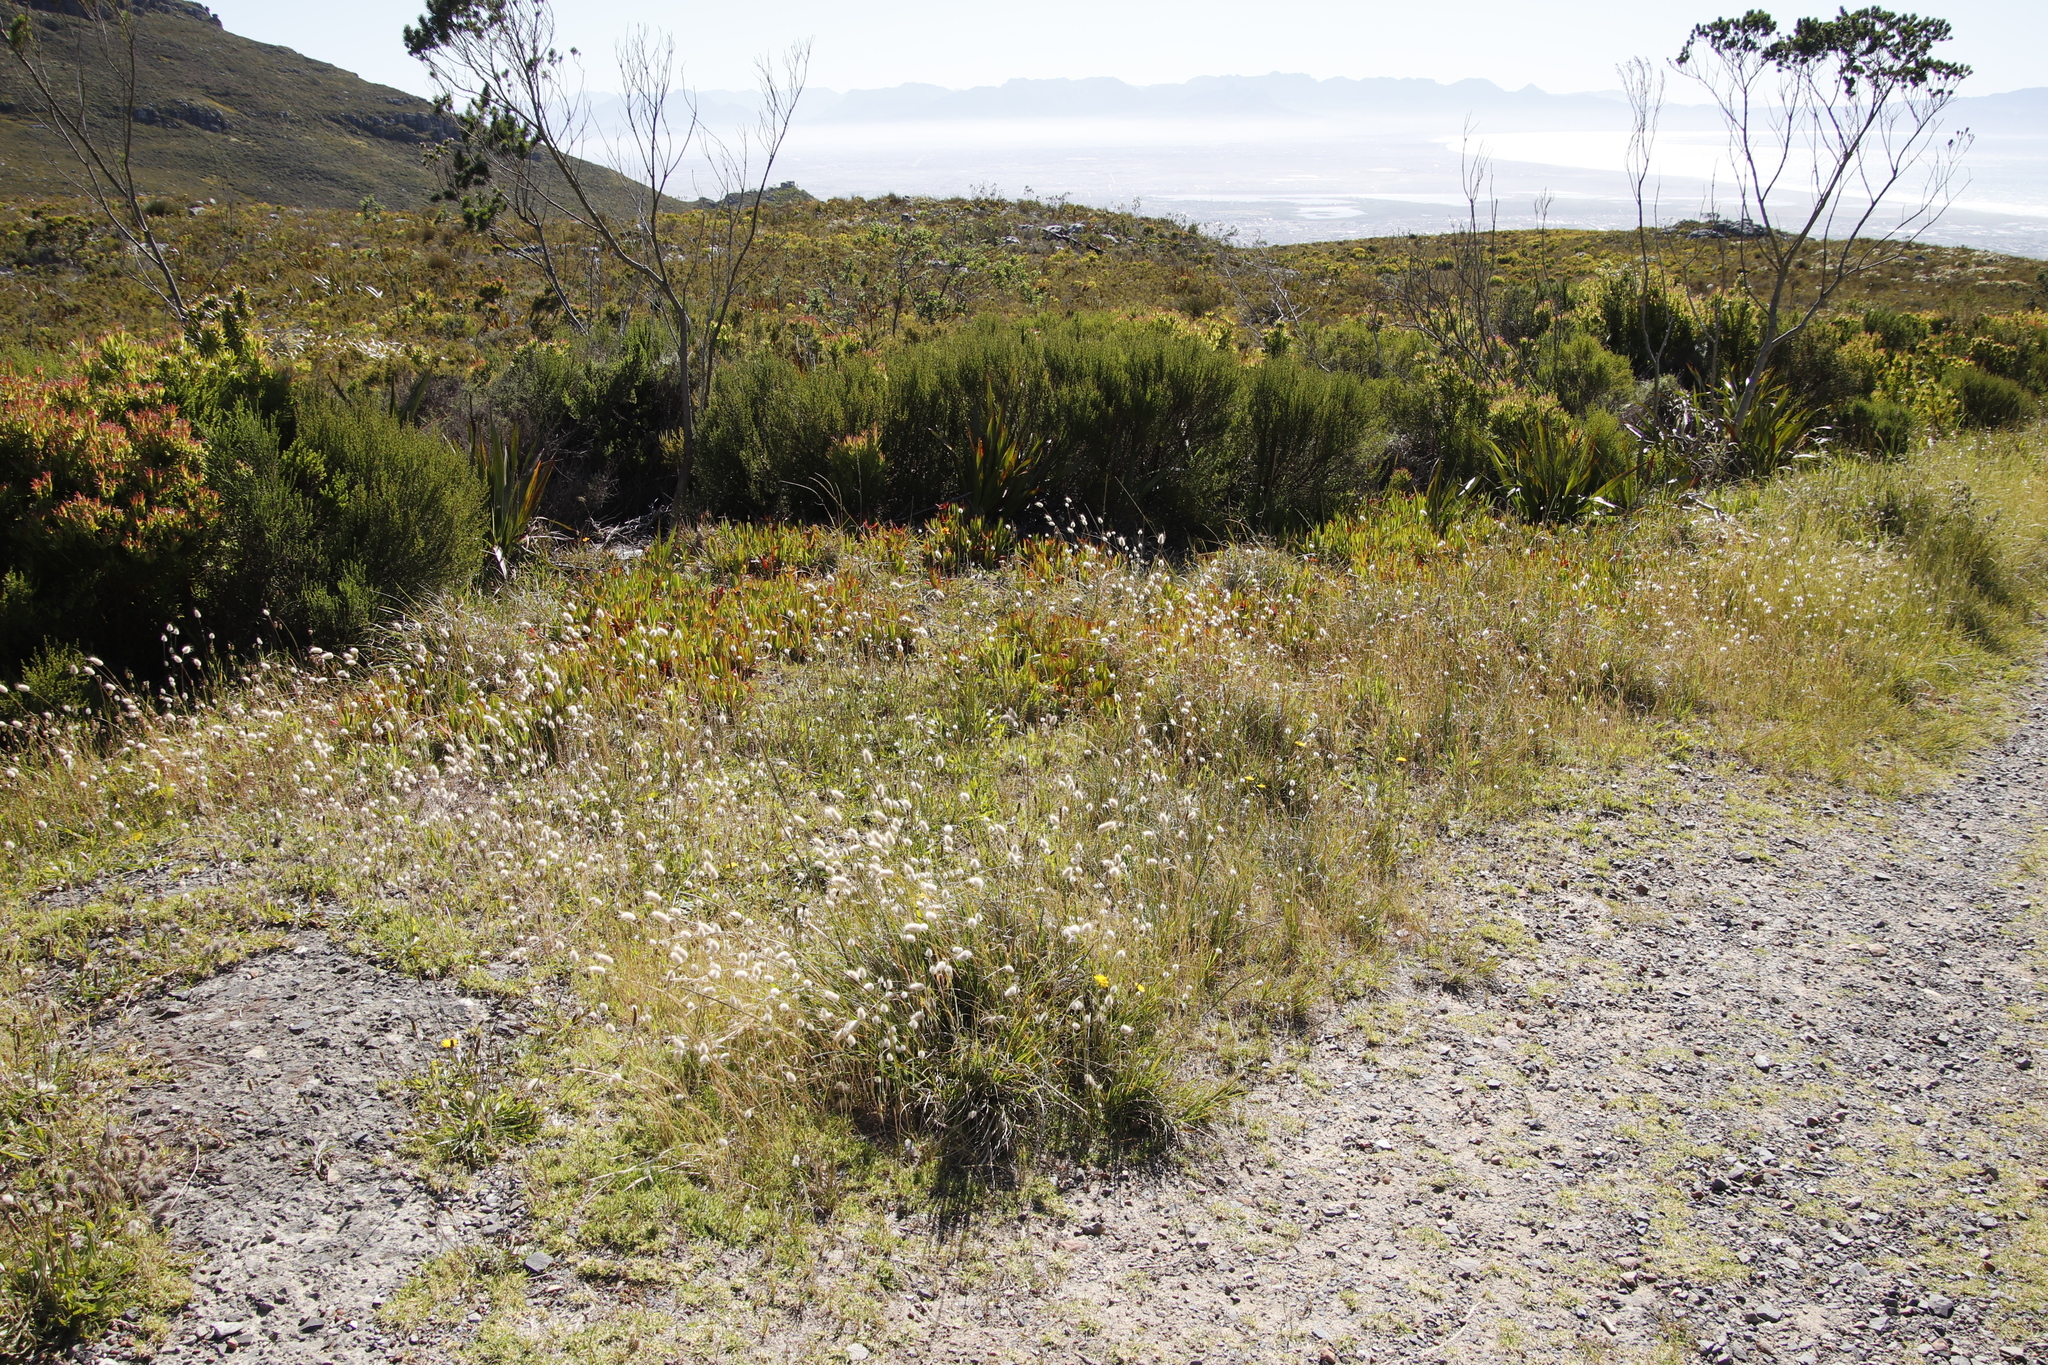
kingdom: Plantae
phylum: Tracheophyta
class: Liliopsida
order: Poales
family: Poaceae
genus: Lagurus
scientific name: Lagurus ovatus
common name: Hare's-tail
